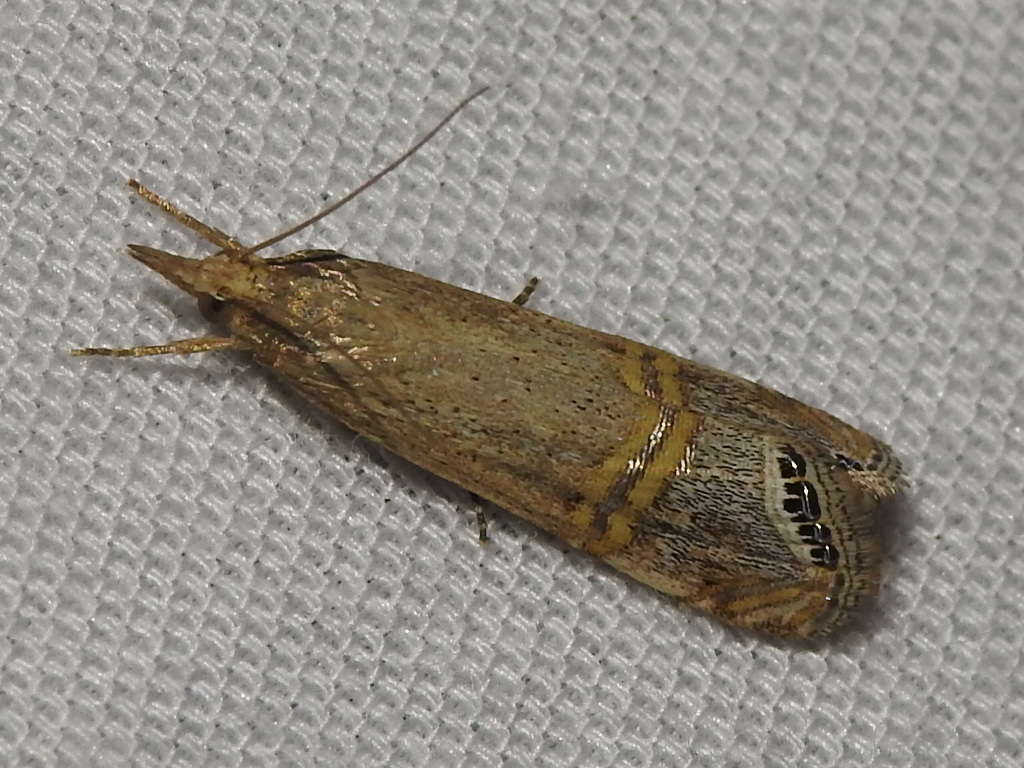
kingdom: Animalia
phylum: Arthropoda
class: Insecta
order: Lepidoptera
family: Crambidae
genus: Euchromius
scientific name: Euchromius ocellea
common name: Necklace veneer moth
